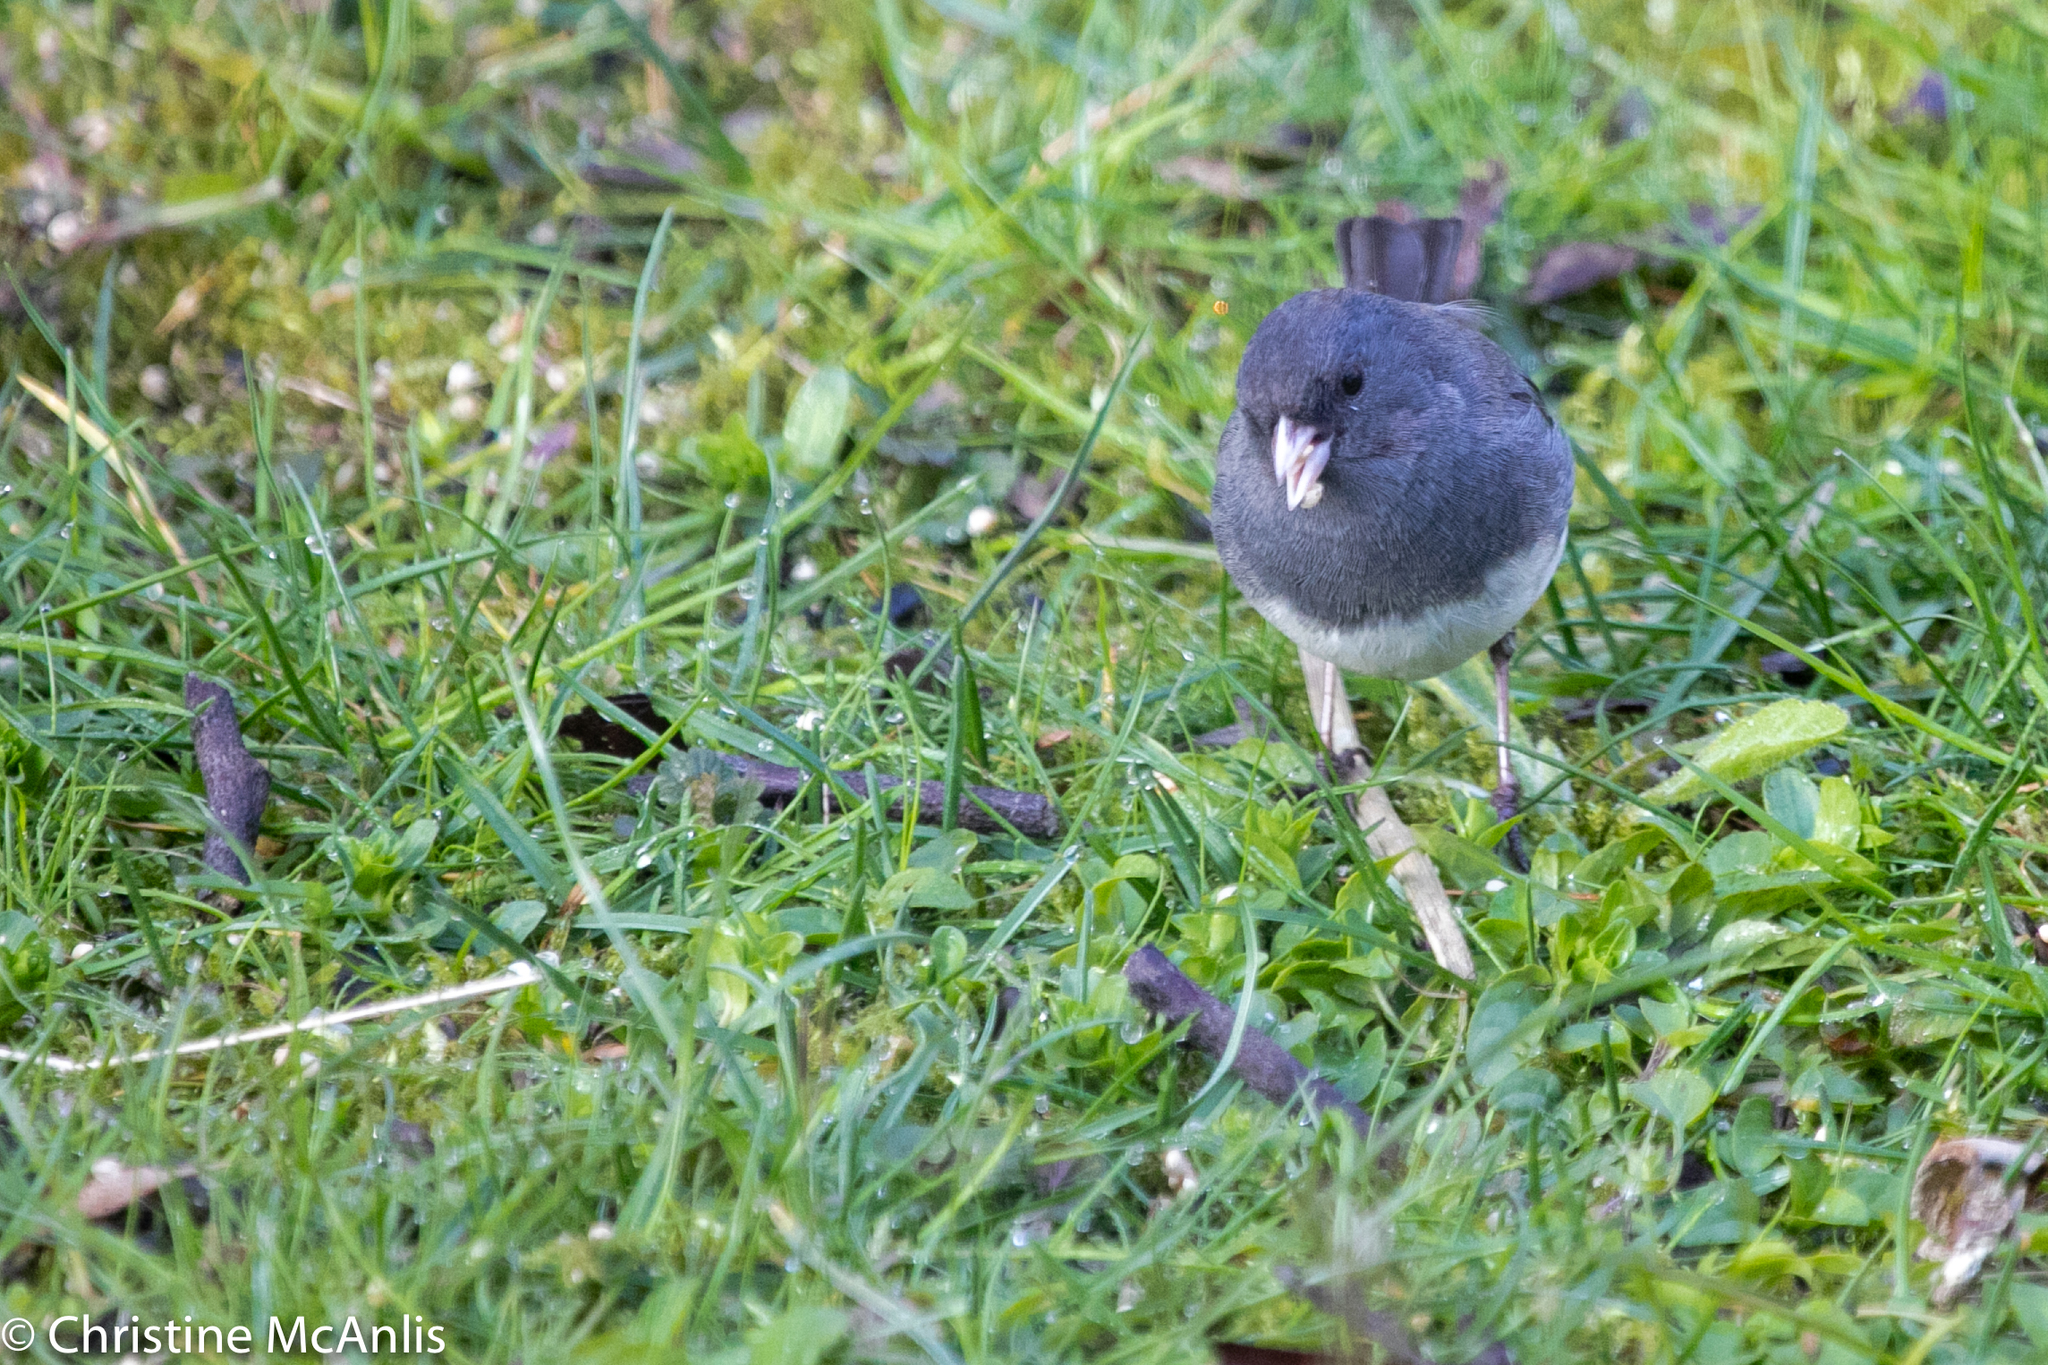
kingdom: Animalia
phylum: Chordata
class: Aves
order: Passeriformes
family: Passerellidae
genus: Junco
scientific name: Junco hyemalis
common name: Dark-eyed junco
